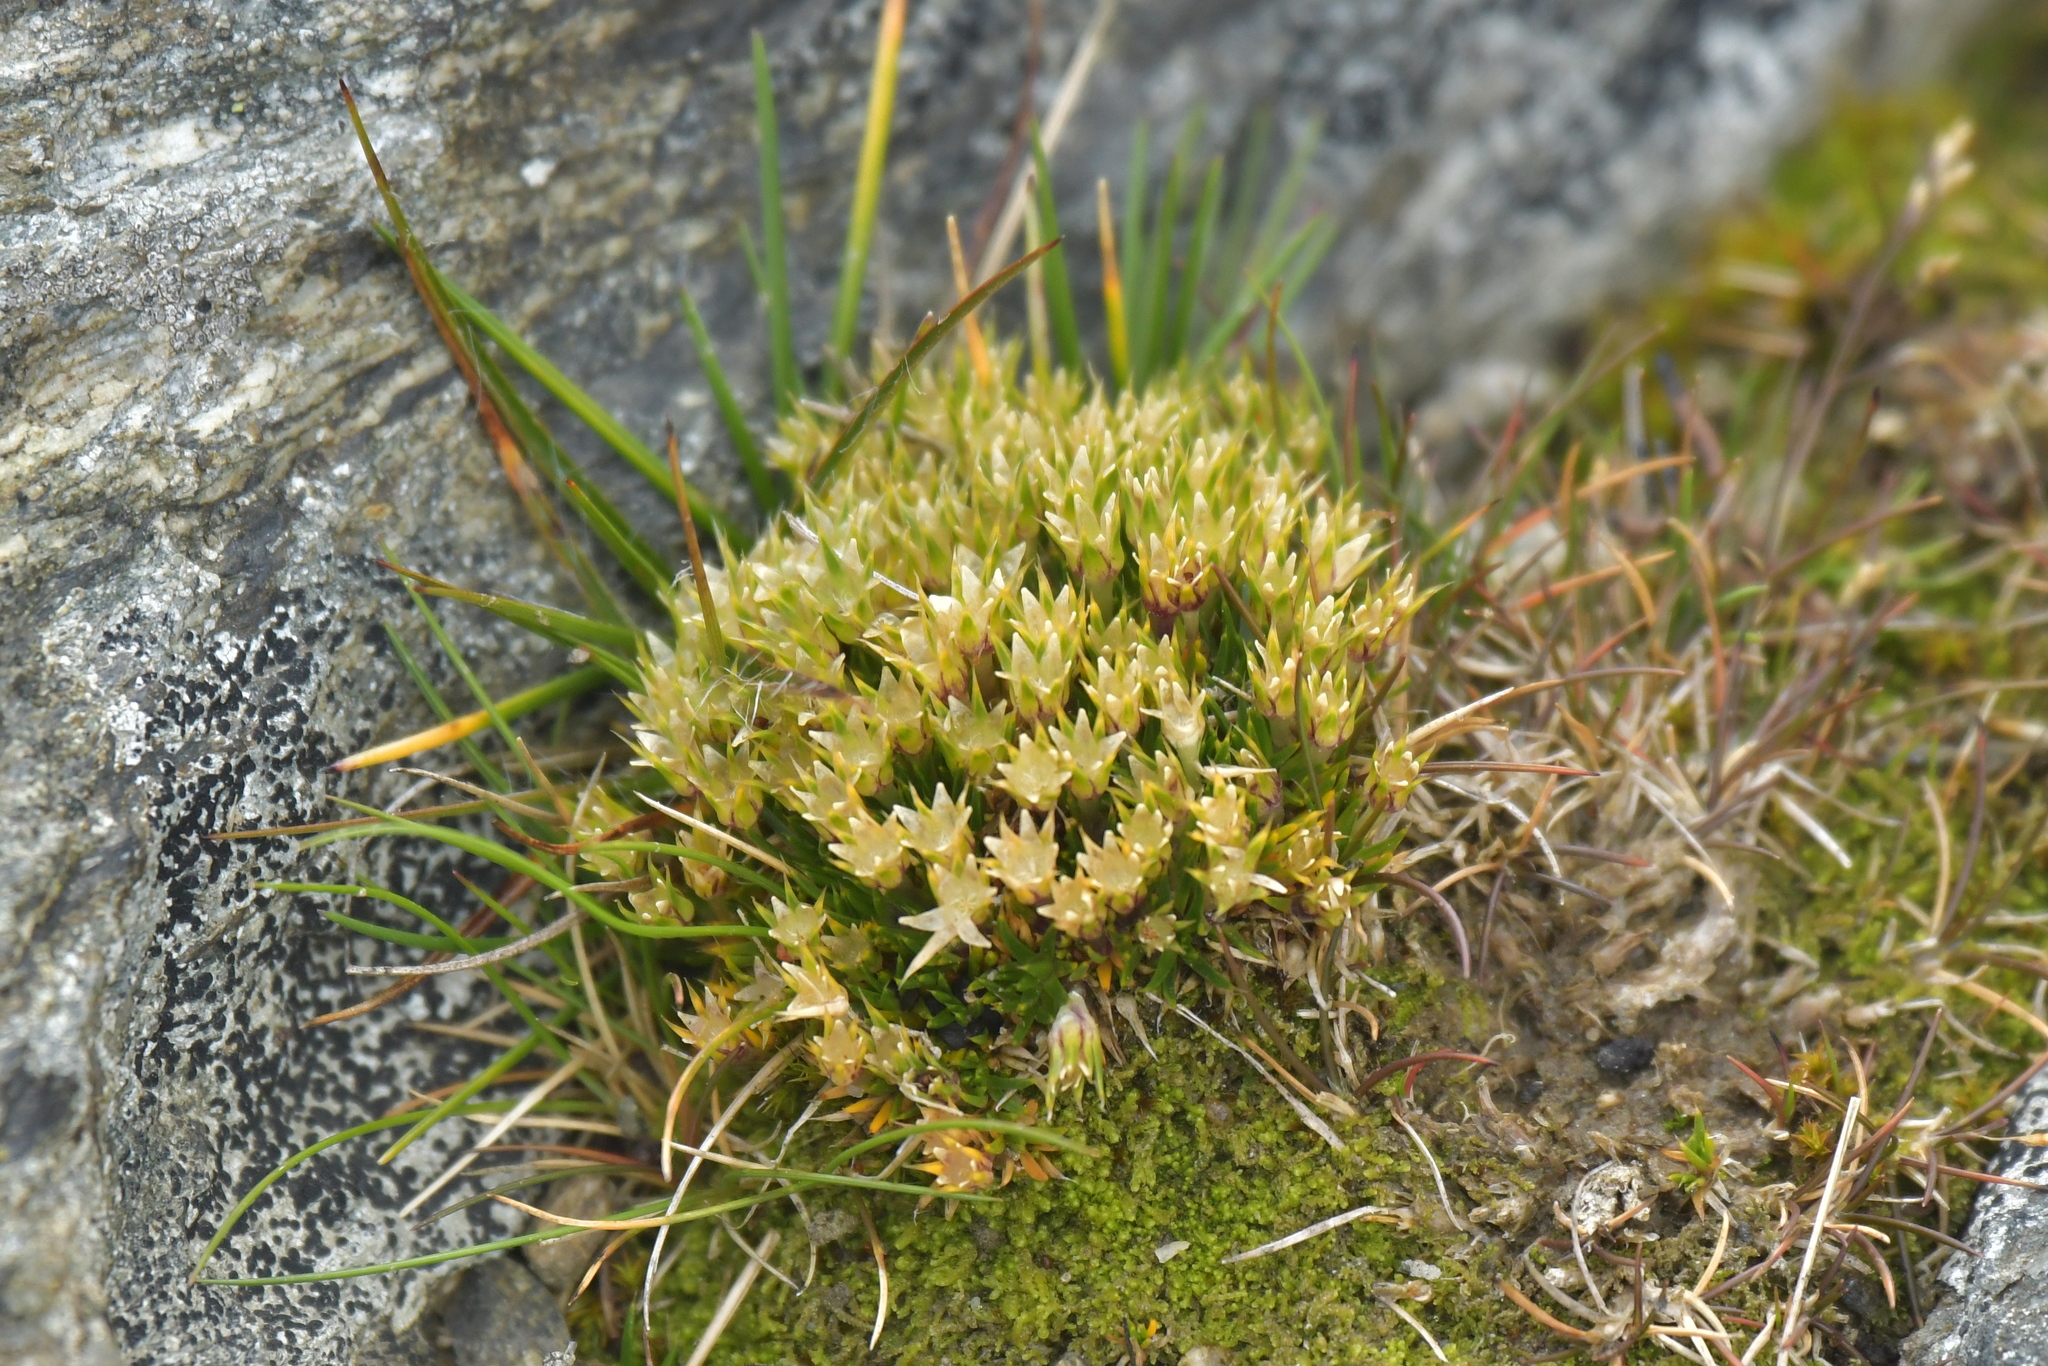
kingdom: Plantae
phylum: Tracheophyta
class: Magnoliopsida
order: Caryophyllales
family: Caryophyllaceae
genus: Colobanthus
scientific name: Colobanthus strictus
